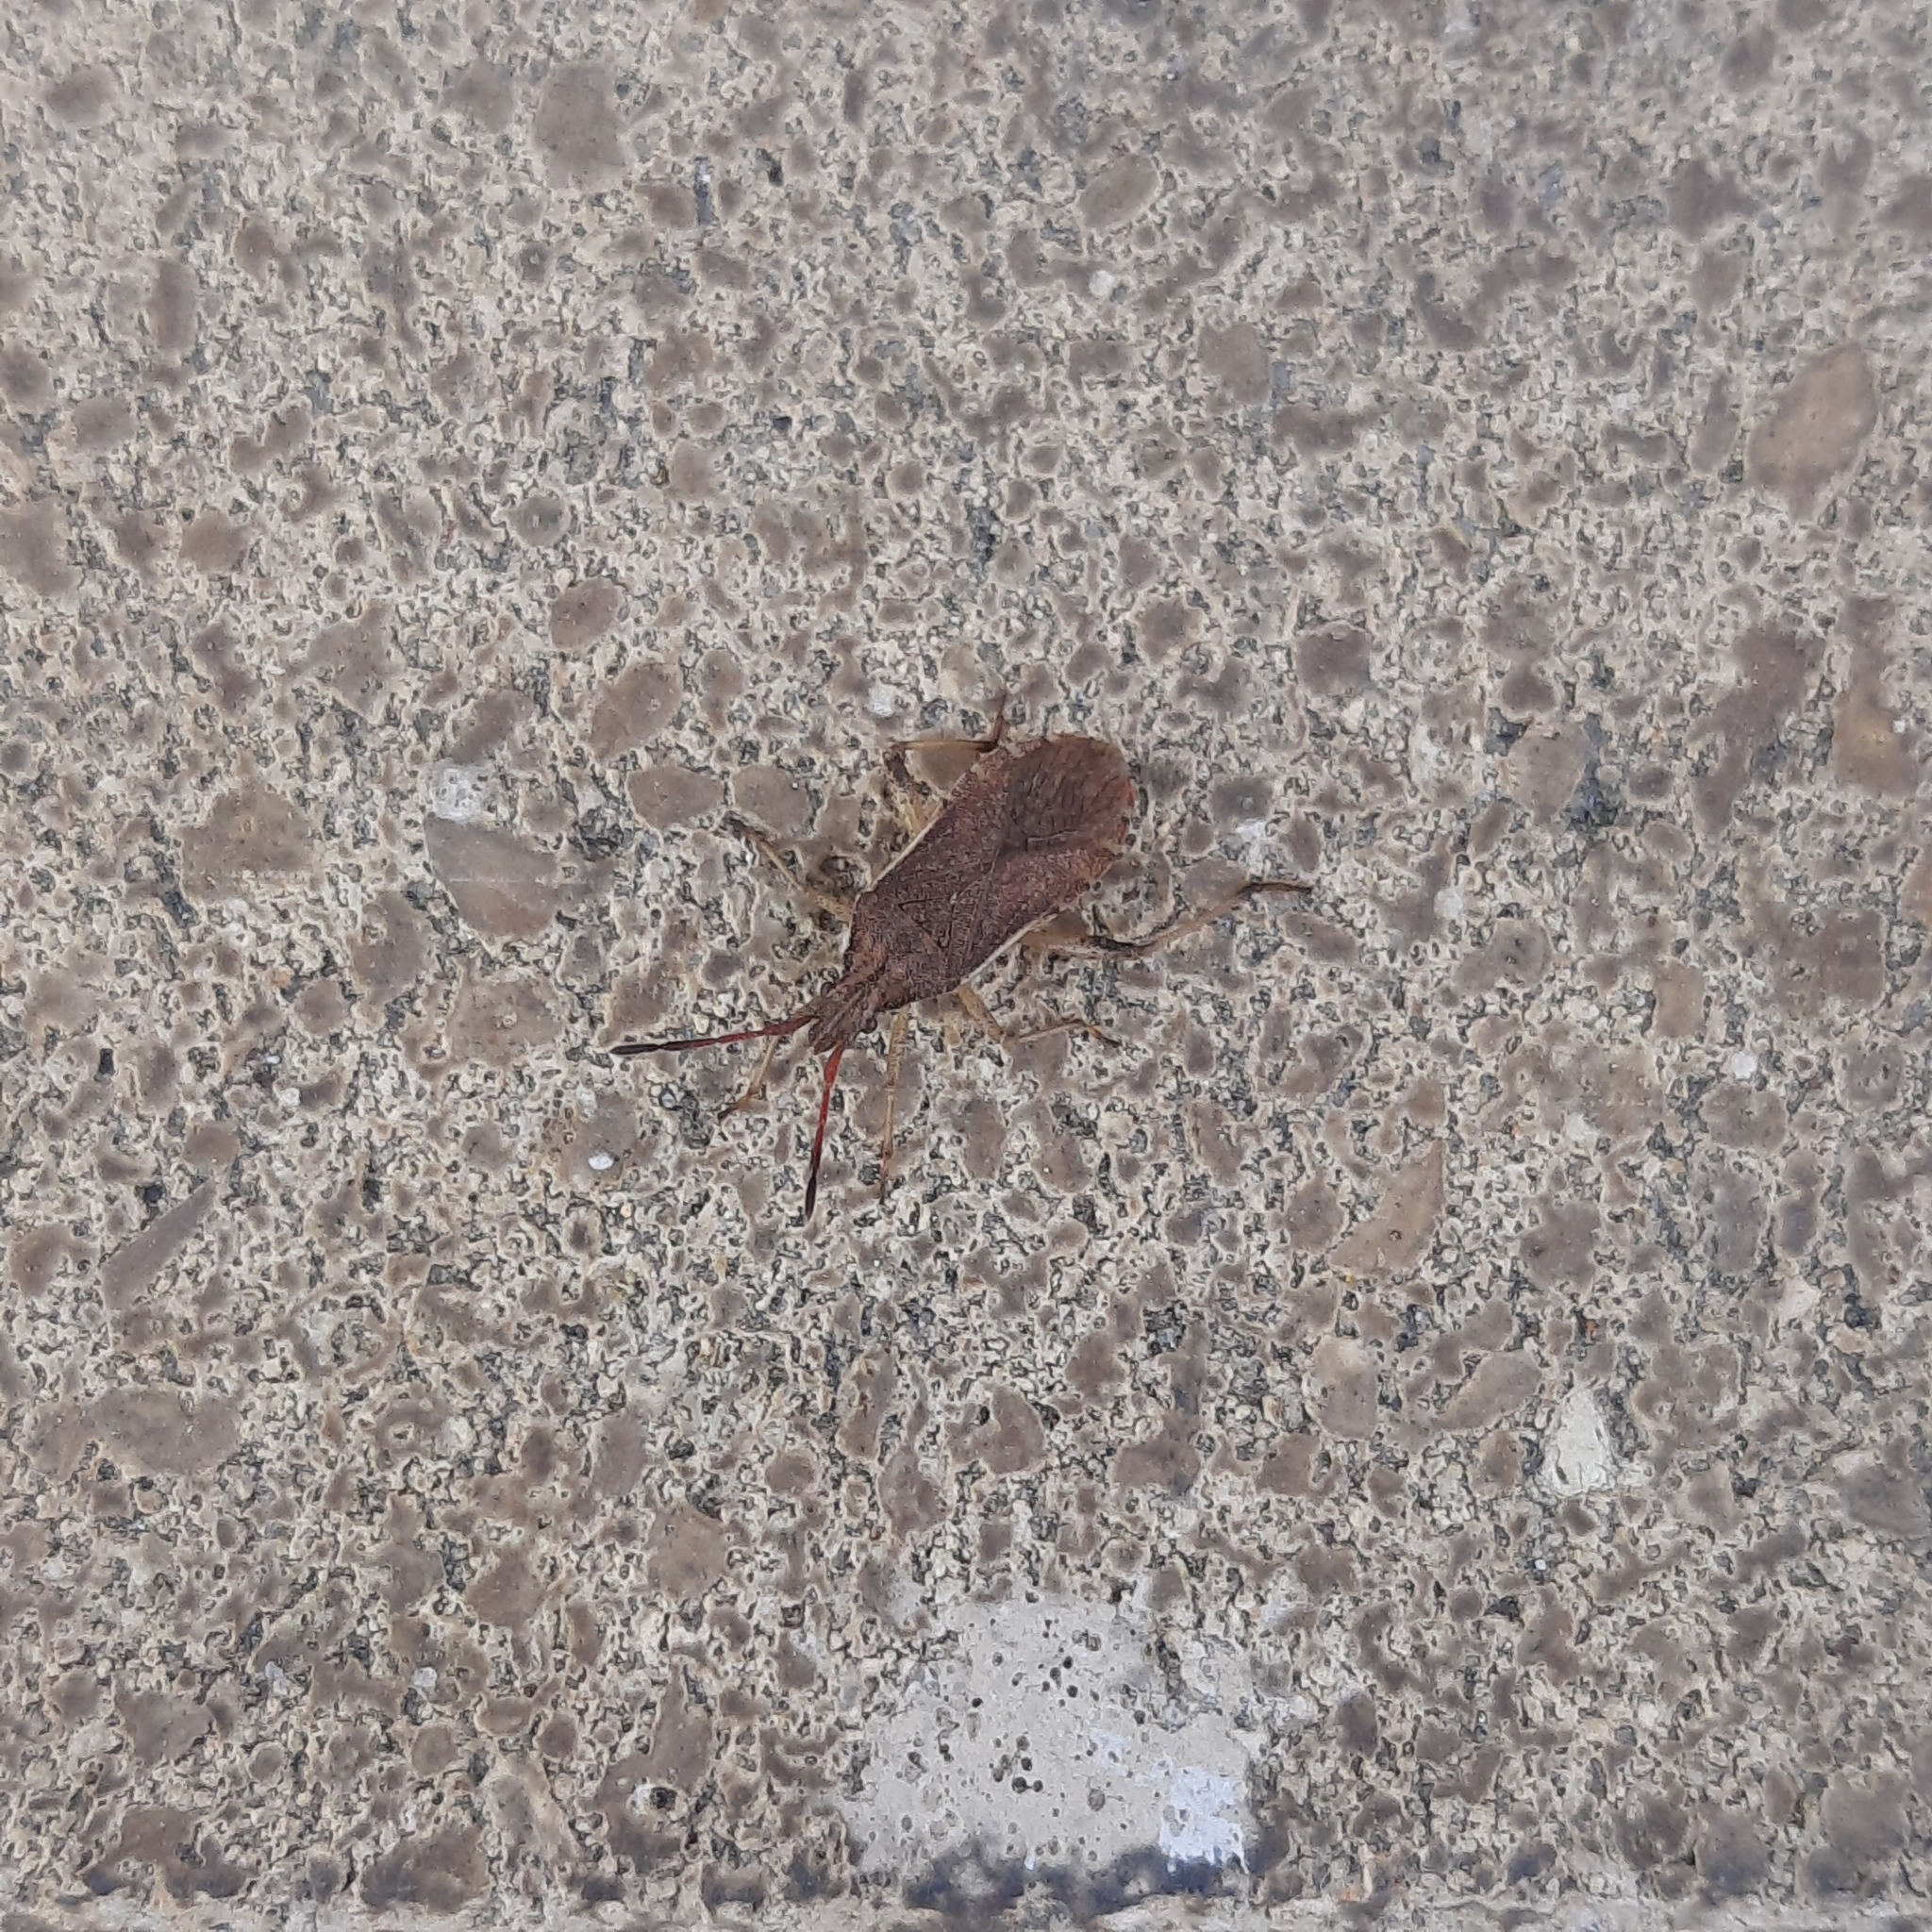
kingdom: Animalia
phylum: Arthropoda
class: Insecta
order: Hemiptera
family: Coreidae
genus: Ceraleptus
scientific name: Ceraleptus lividus
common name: Slender-horned leatherbug
